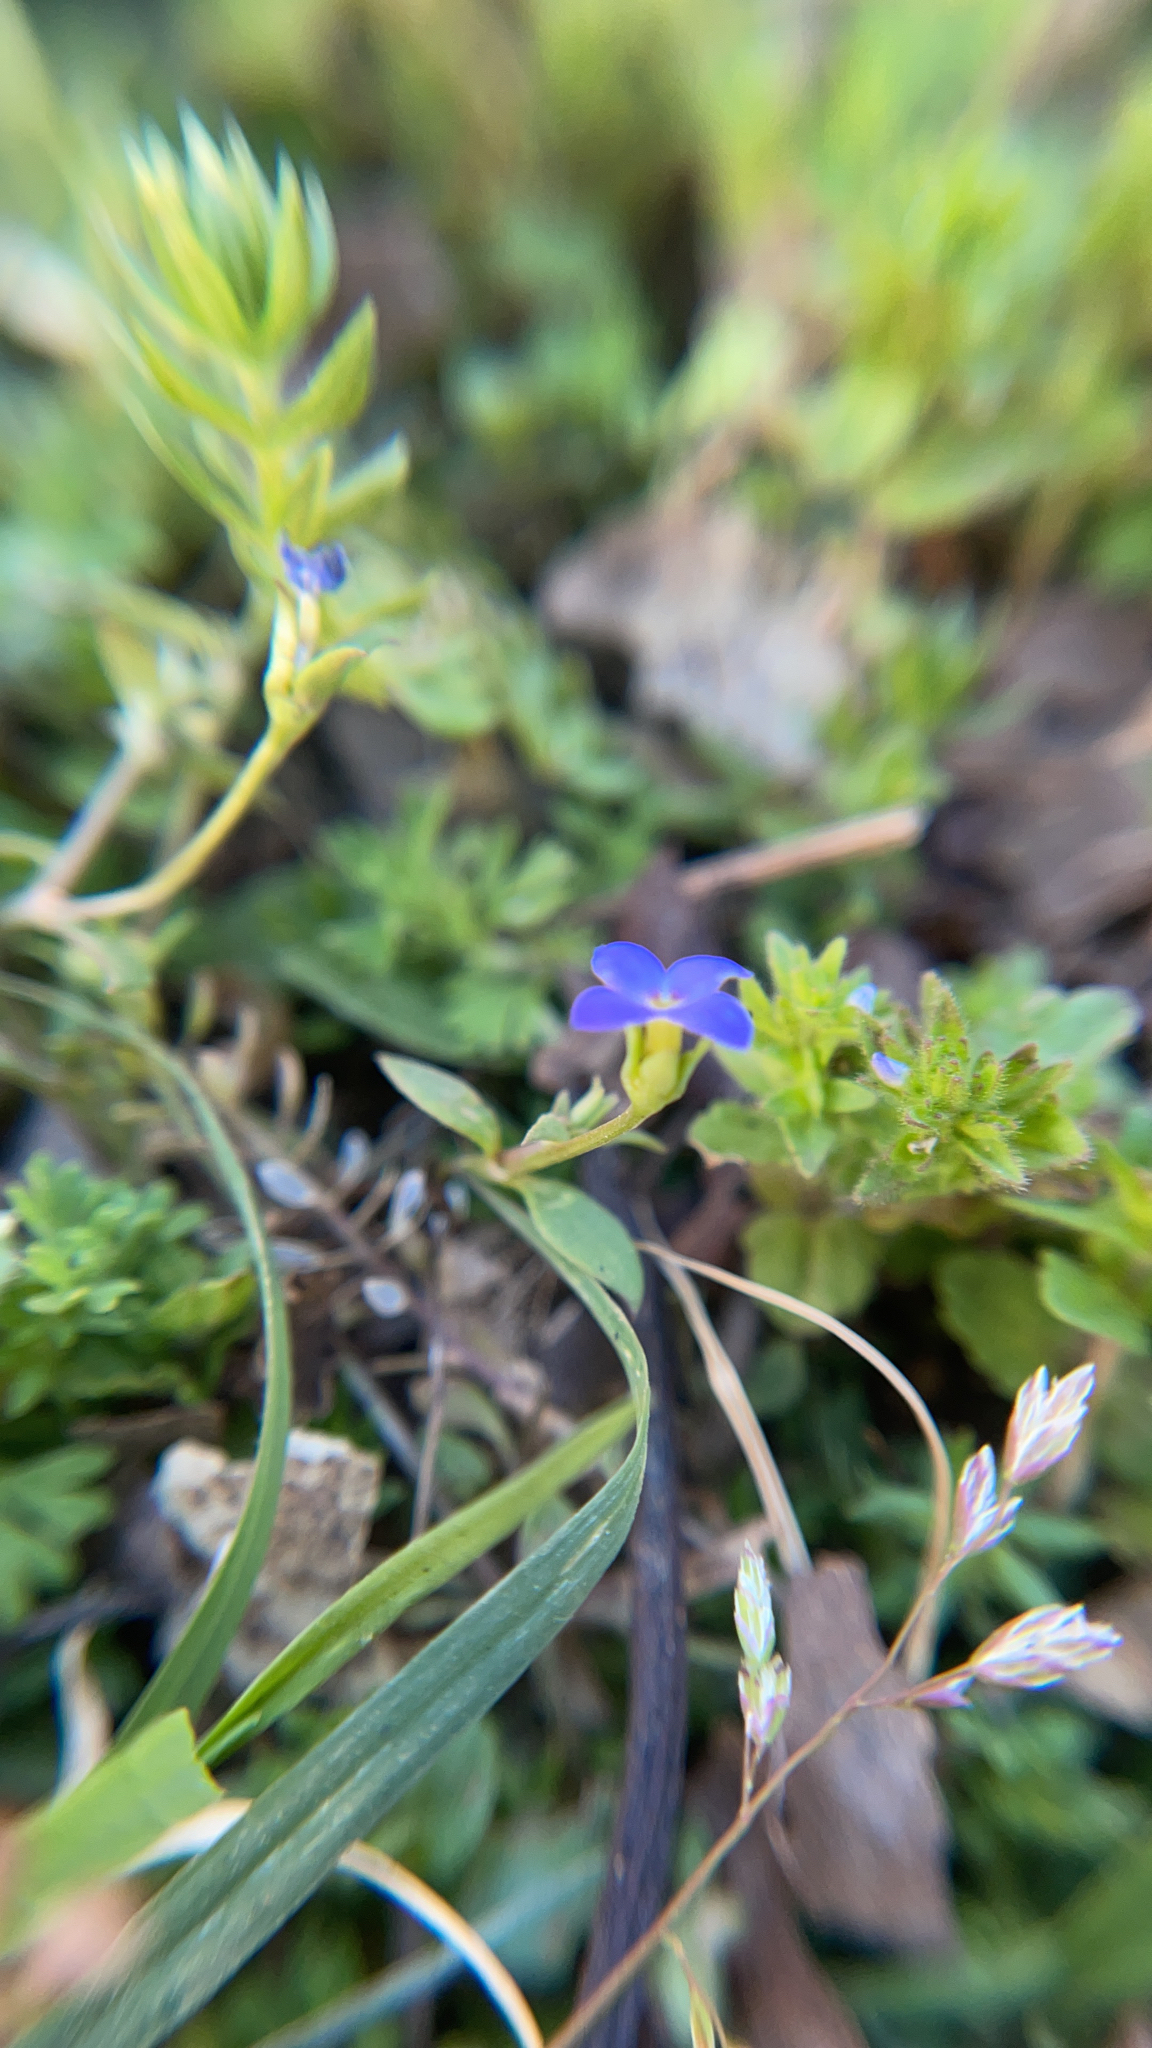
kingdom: Plantae
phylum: Tracheophyta
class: Magnoliopsida
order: Gentianales
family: Rubiaceae
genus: Houstonia
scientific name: Houstonia pusilla
